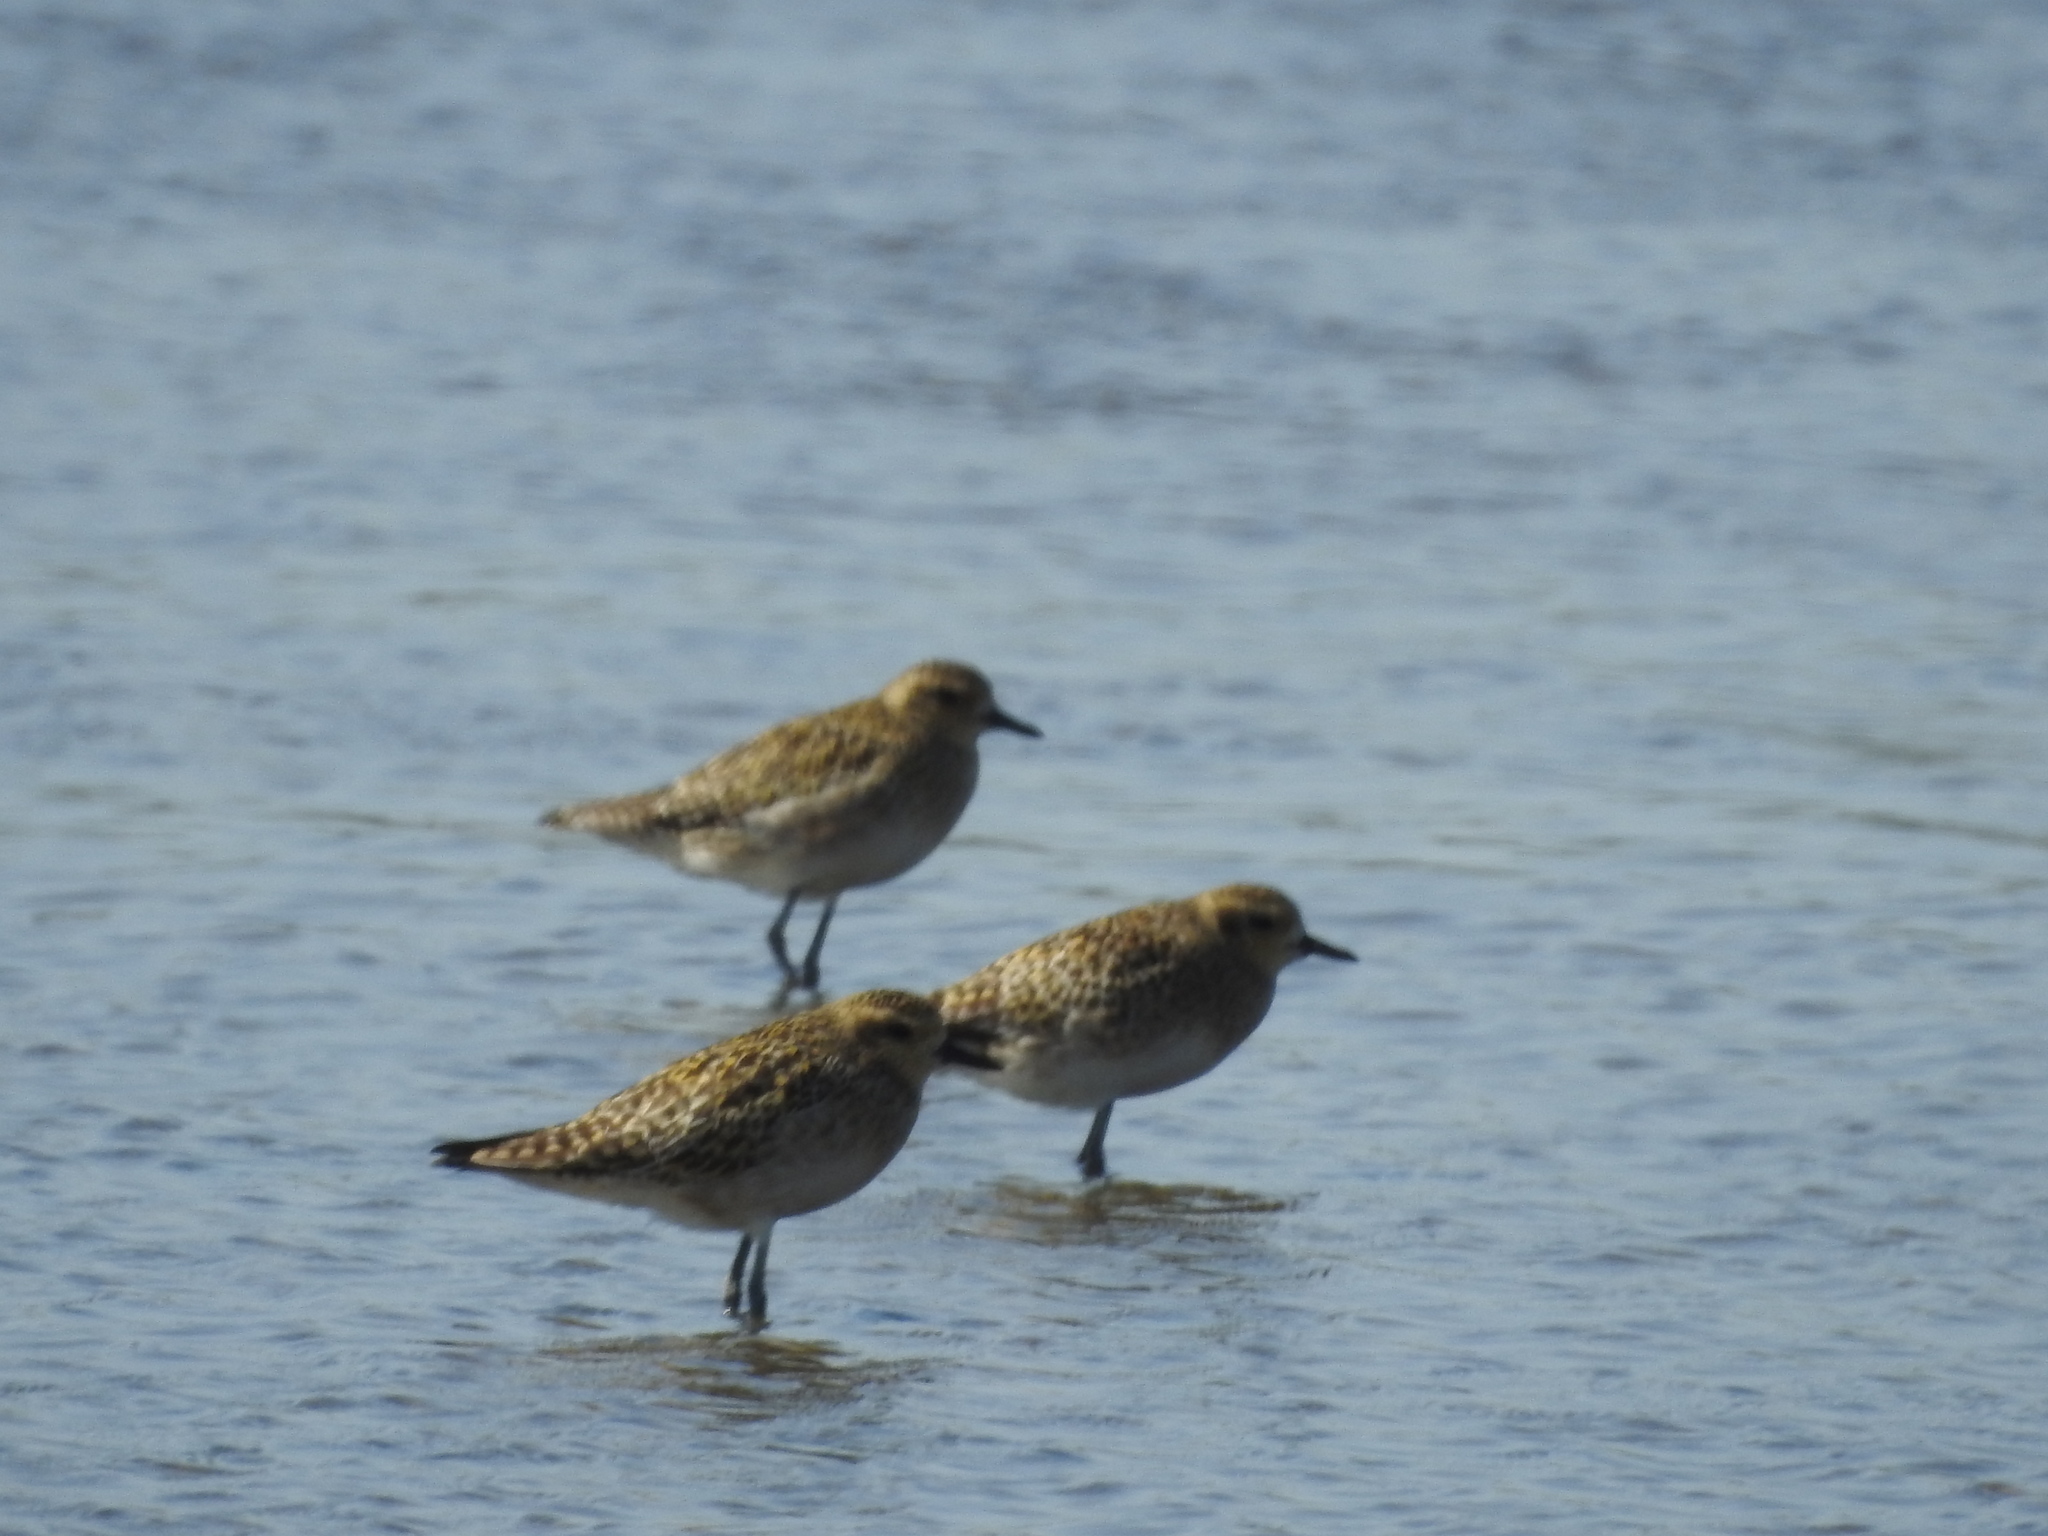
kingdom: Animalia
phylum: Chordata
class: Aves
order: Charadriiformes
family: Charadriidae
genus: Pluvialis
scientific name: Pluvialis fulva
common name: Pacific golden plover
